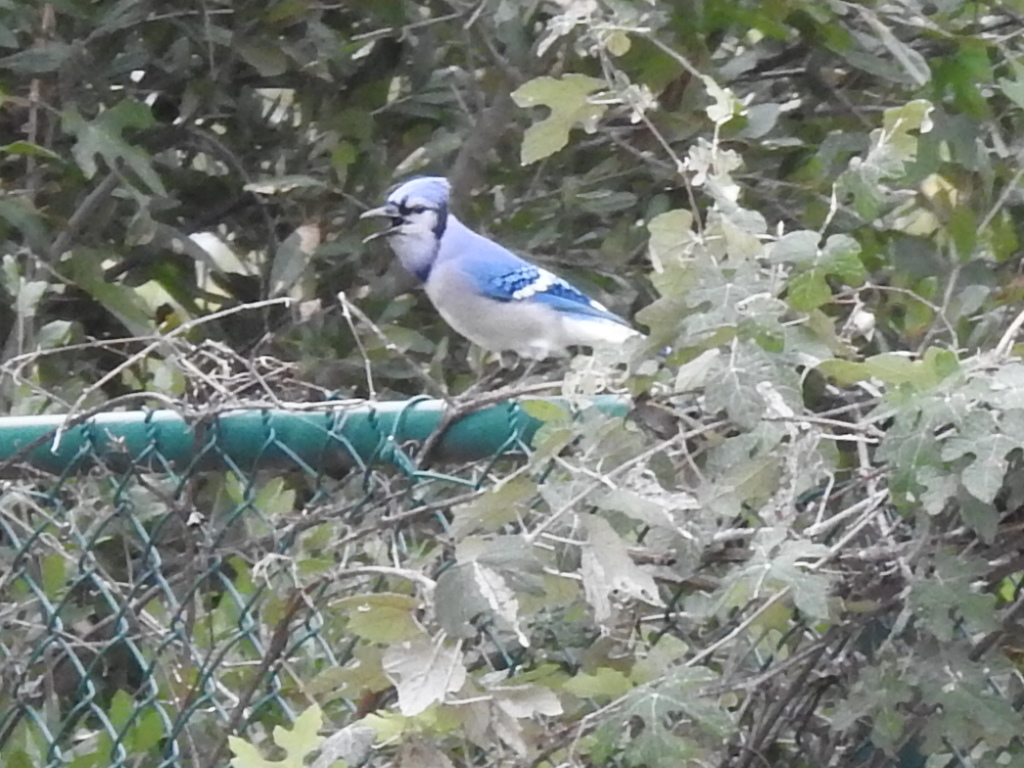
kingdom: Animalia
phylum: Chordata
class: Aves
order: Passeriformes
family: Corvidae
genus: Cyanocitta
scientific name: Cyanocitta cristata
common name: Blue jay
